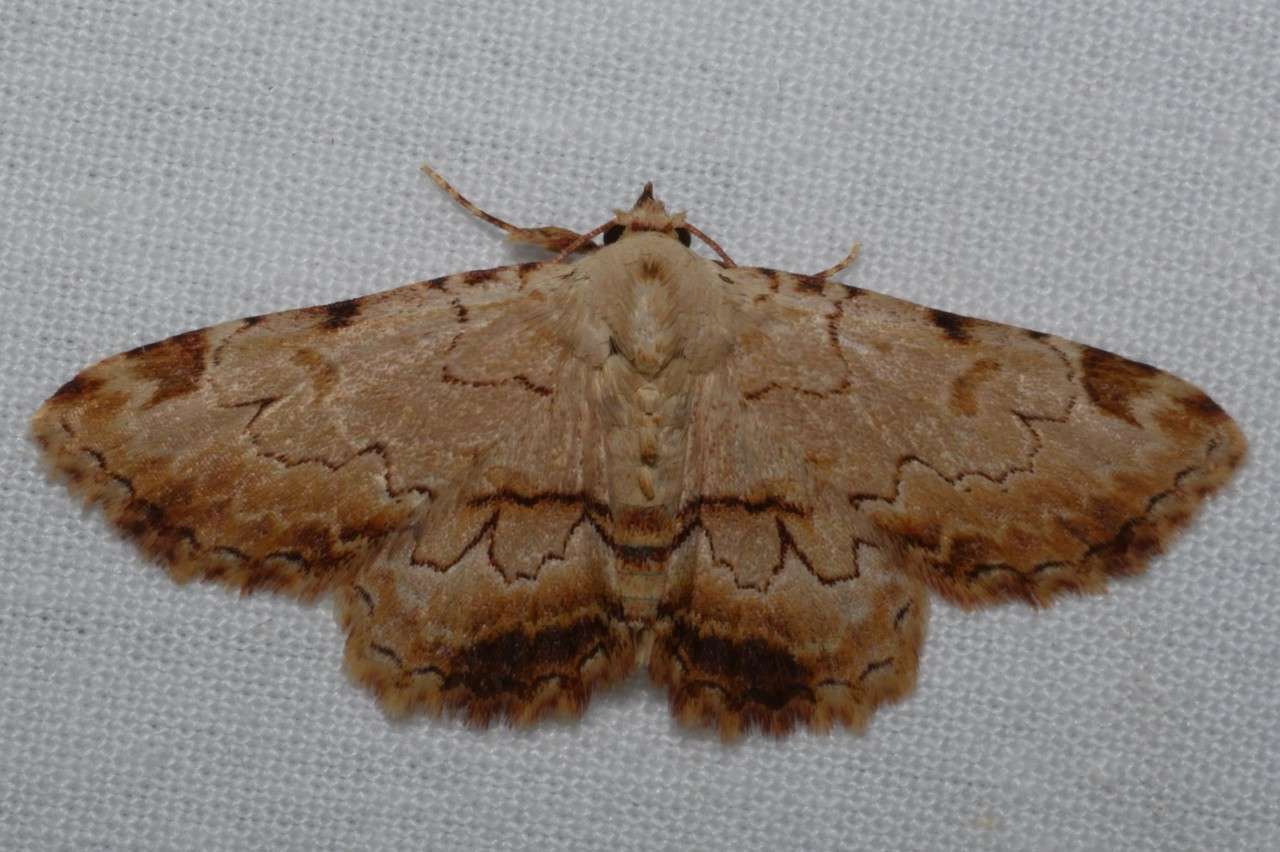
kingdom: Animalia
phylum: Arthropoda
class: Insecta
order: Lepidoptera
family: Erebidae
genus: Sandava
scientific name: Sandava xylistis
